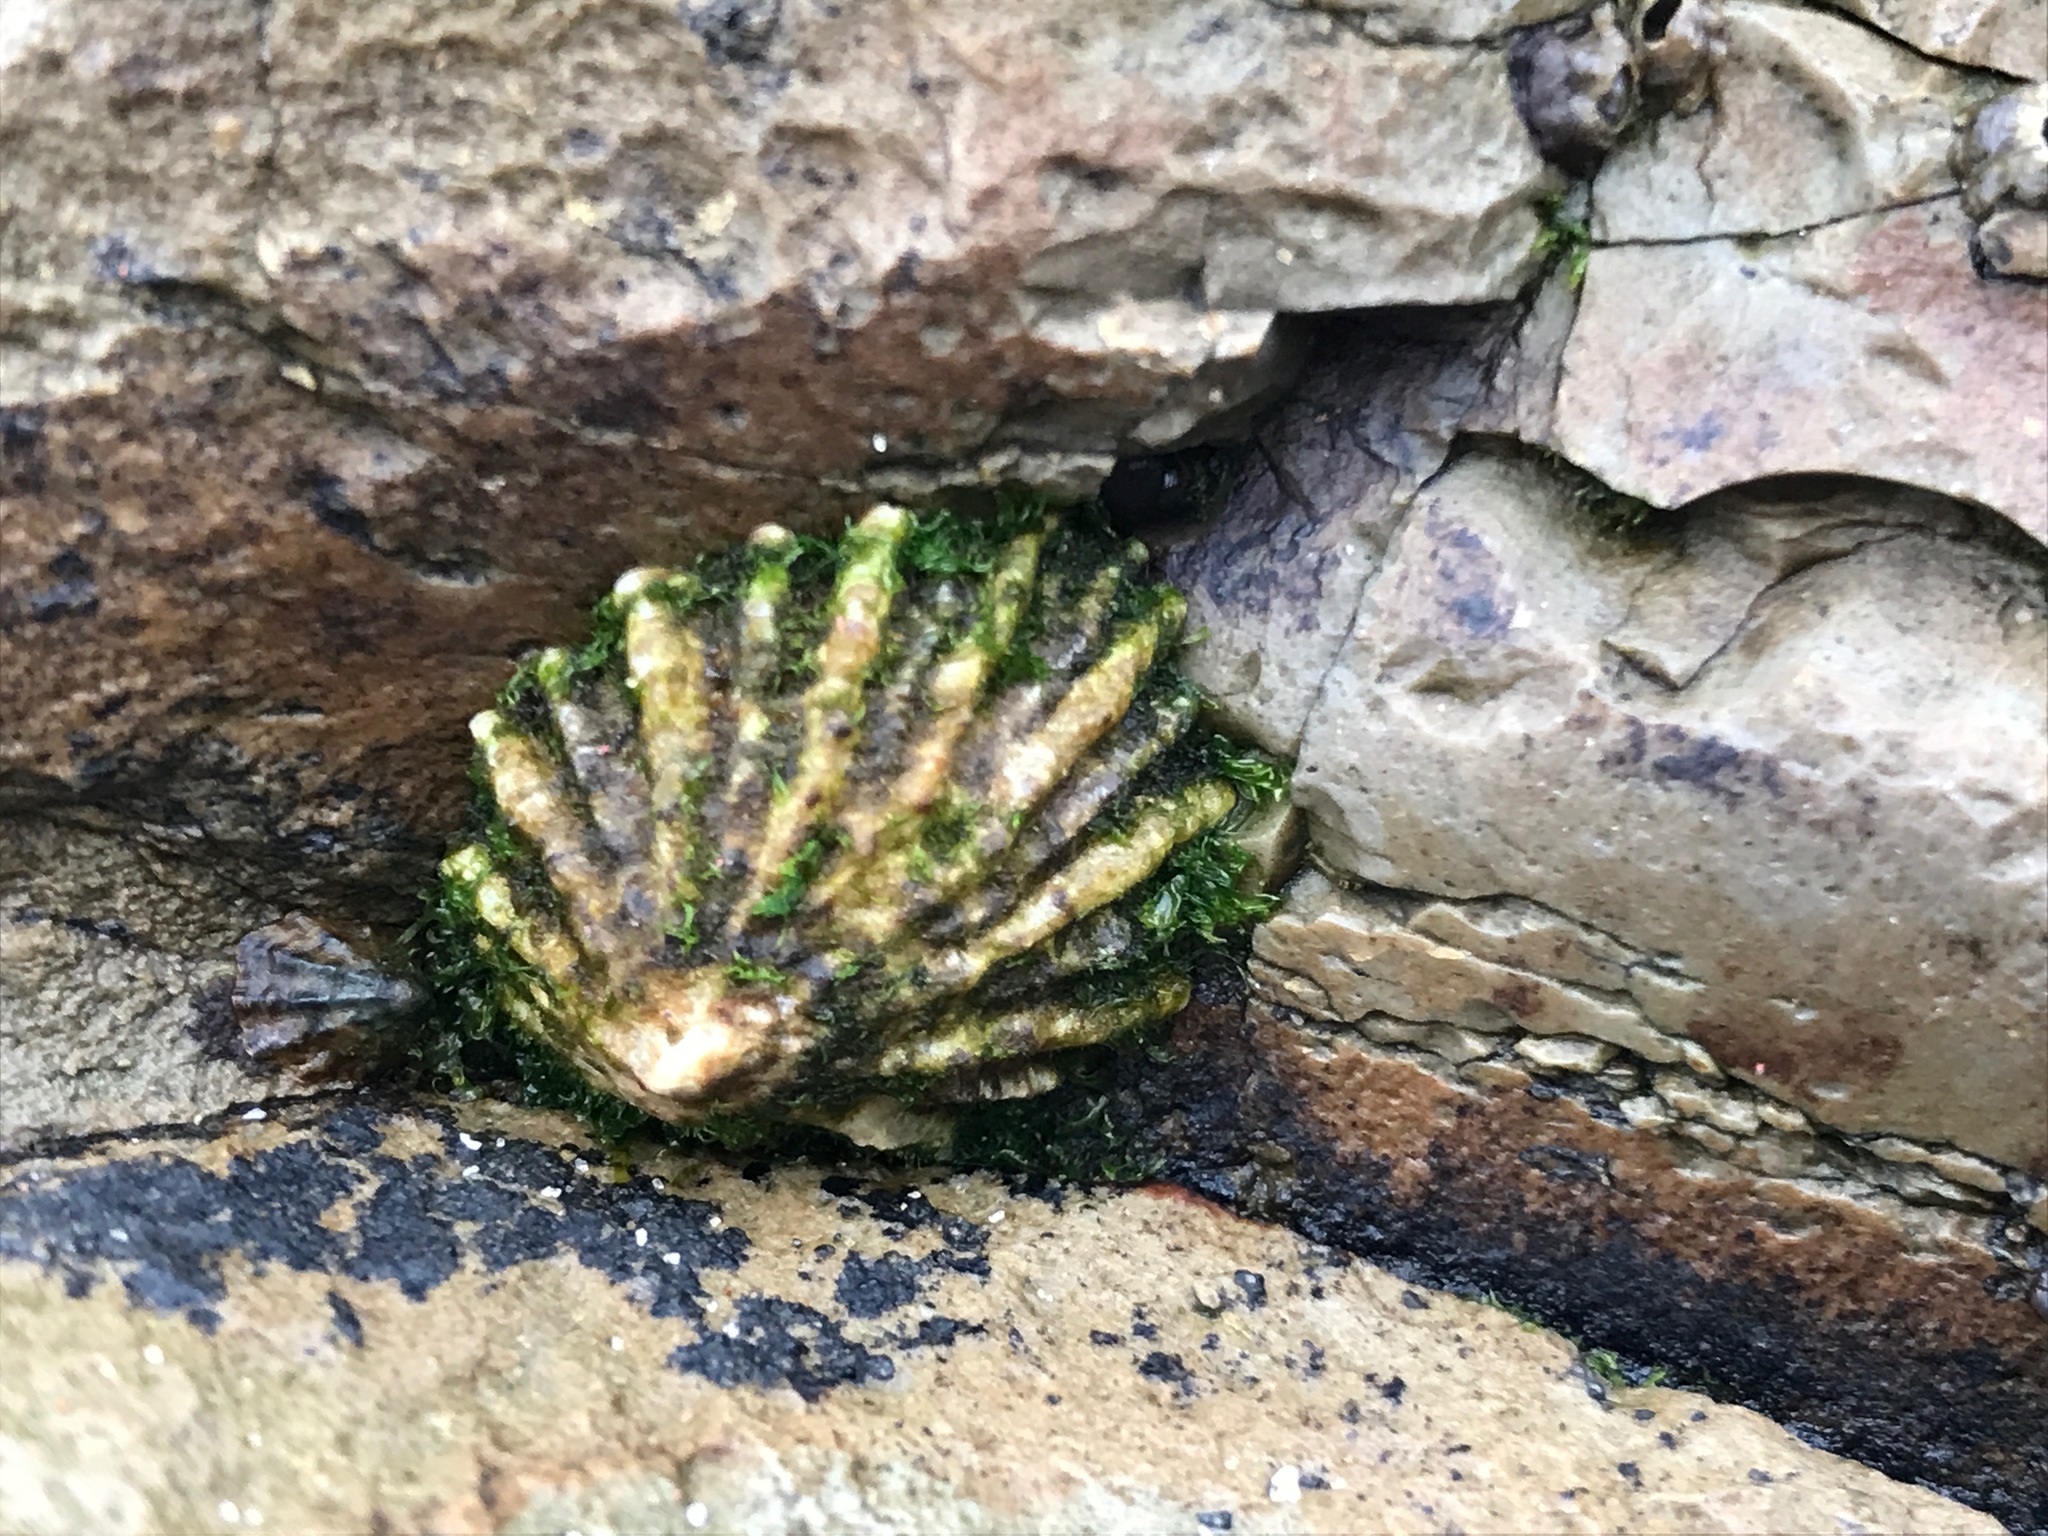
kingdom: Animalia
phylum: Mollusca
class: Gastropoda
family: Lottiidae
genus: Lottia
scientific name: Lottia scabra
